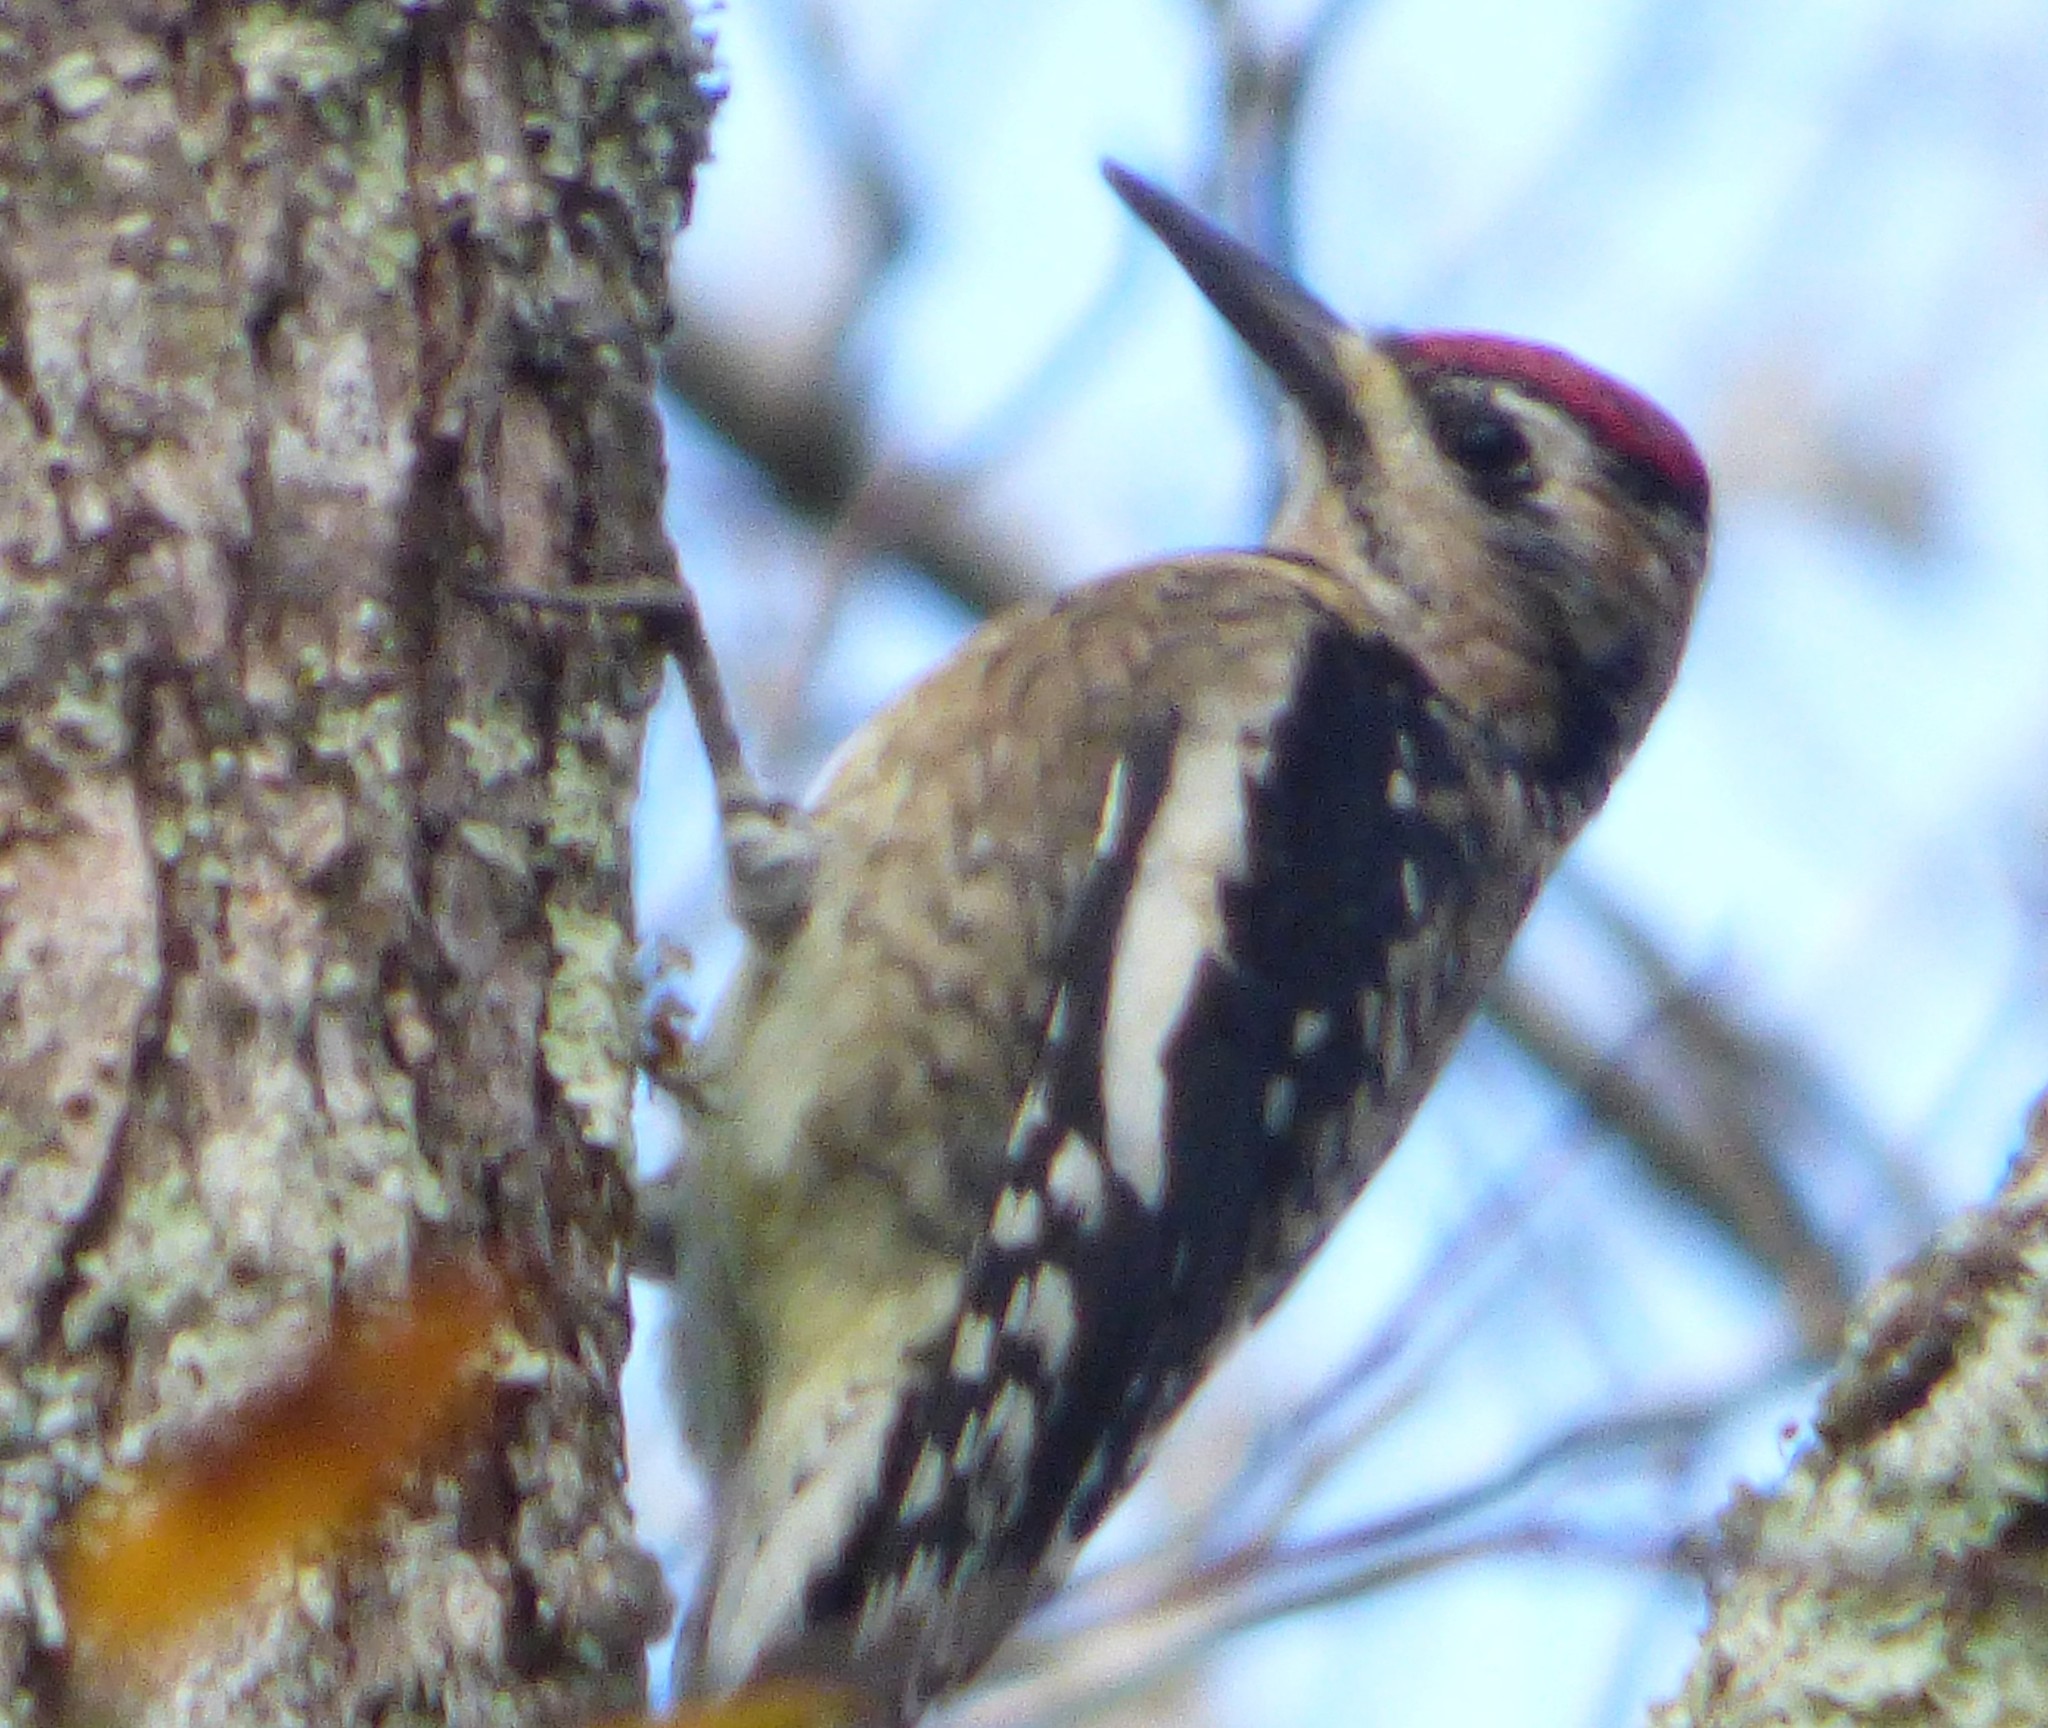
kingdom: Animalia
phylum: Chordata
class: Aves
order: Piciformes
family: Picidae
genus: Sphyrapicus
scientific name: Sphyrapicus varius
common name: Yellow-bellied sapsucker
